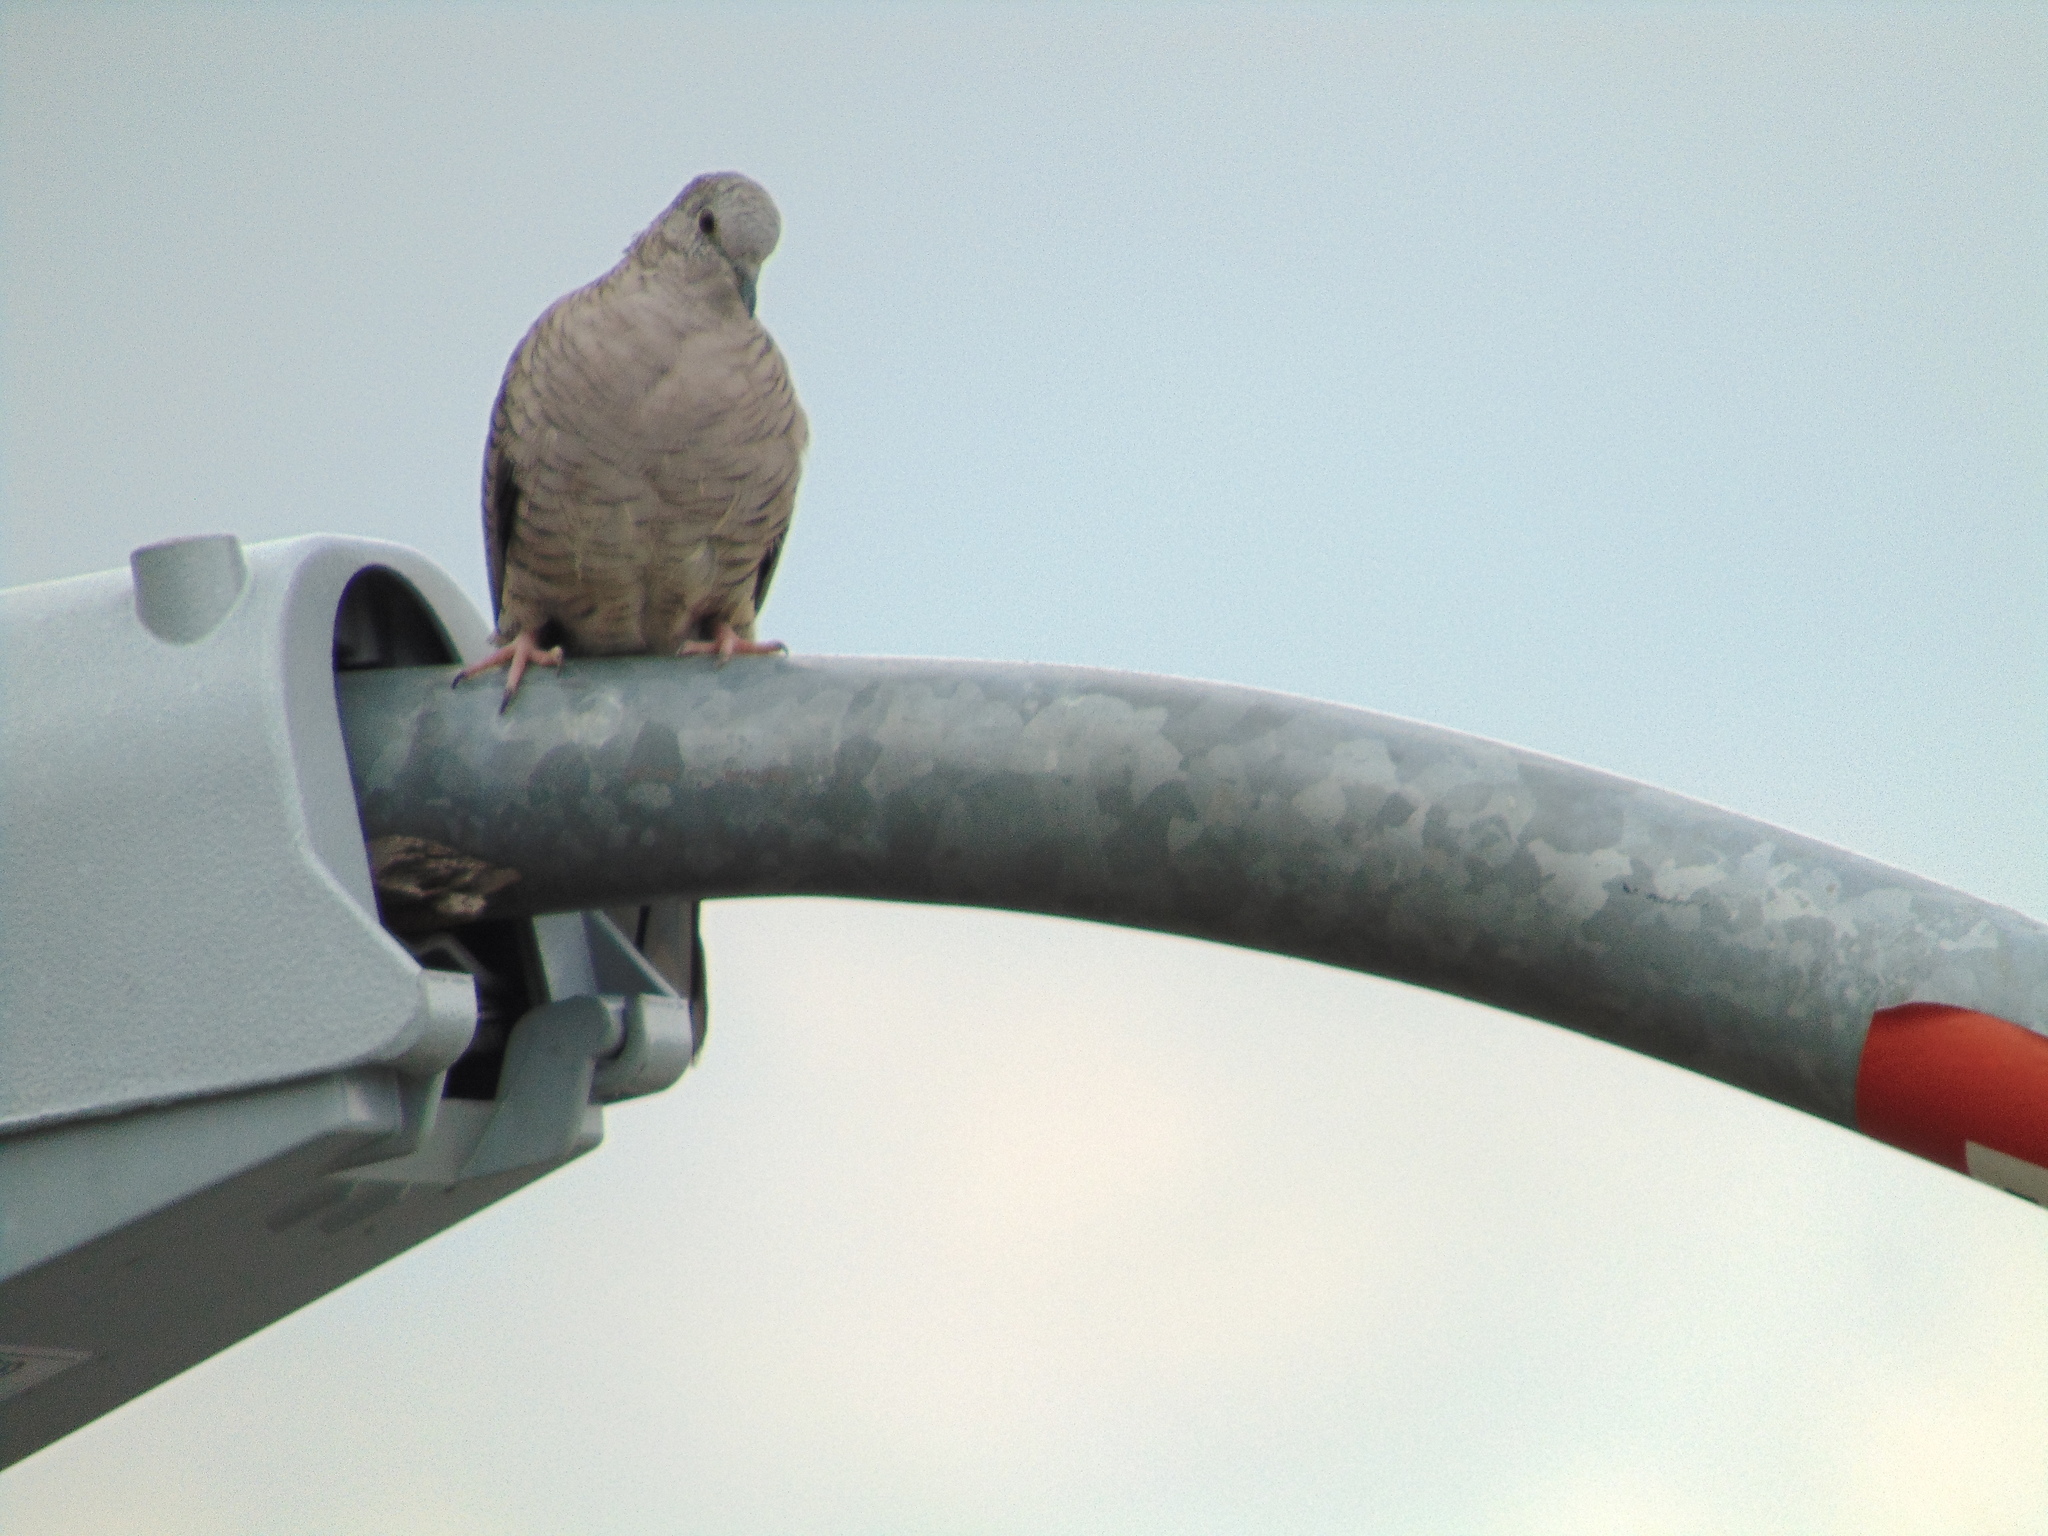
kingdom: Animalia
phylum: Chordata
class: Aves
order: Columbiformes
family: Columbidae
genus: Columbina
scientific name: Columbina inca
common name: Inca dove
